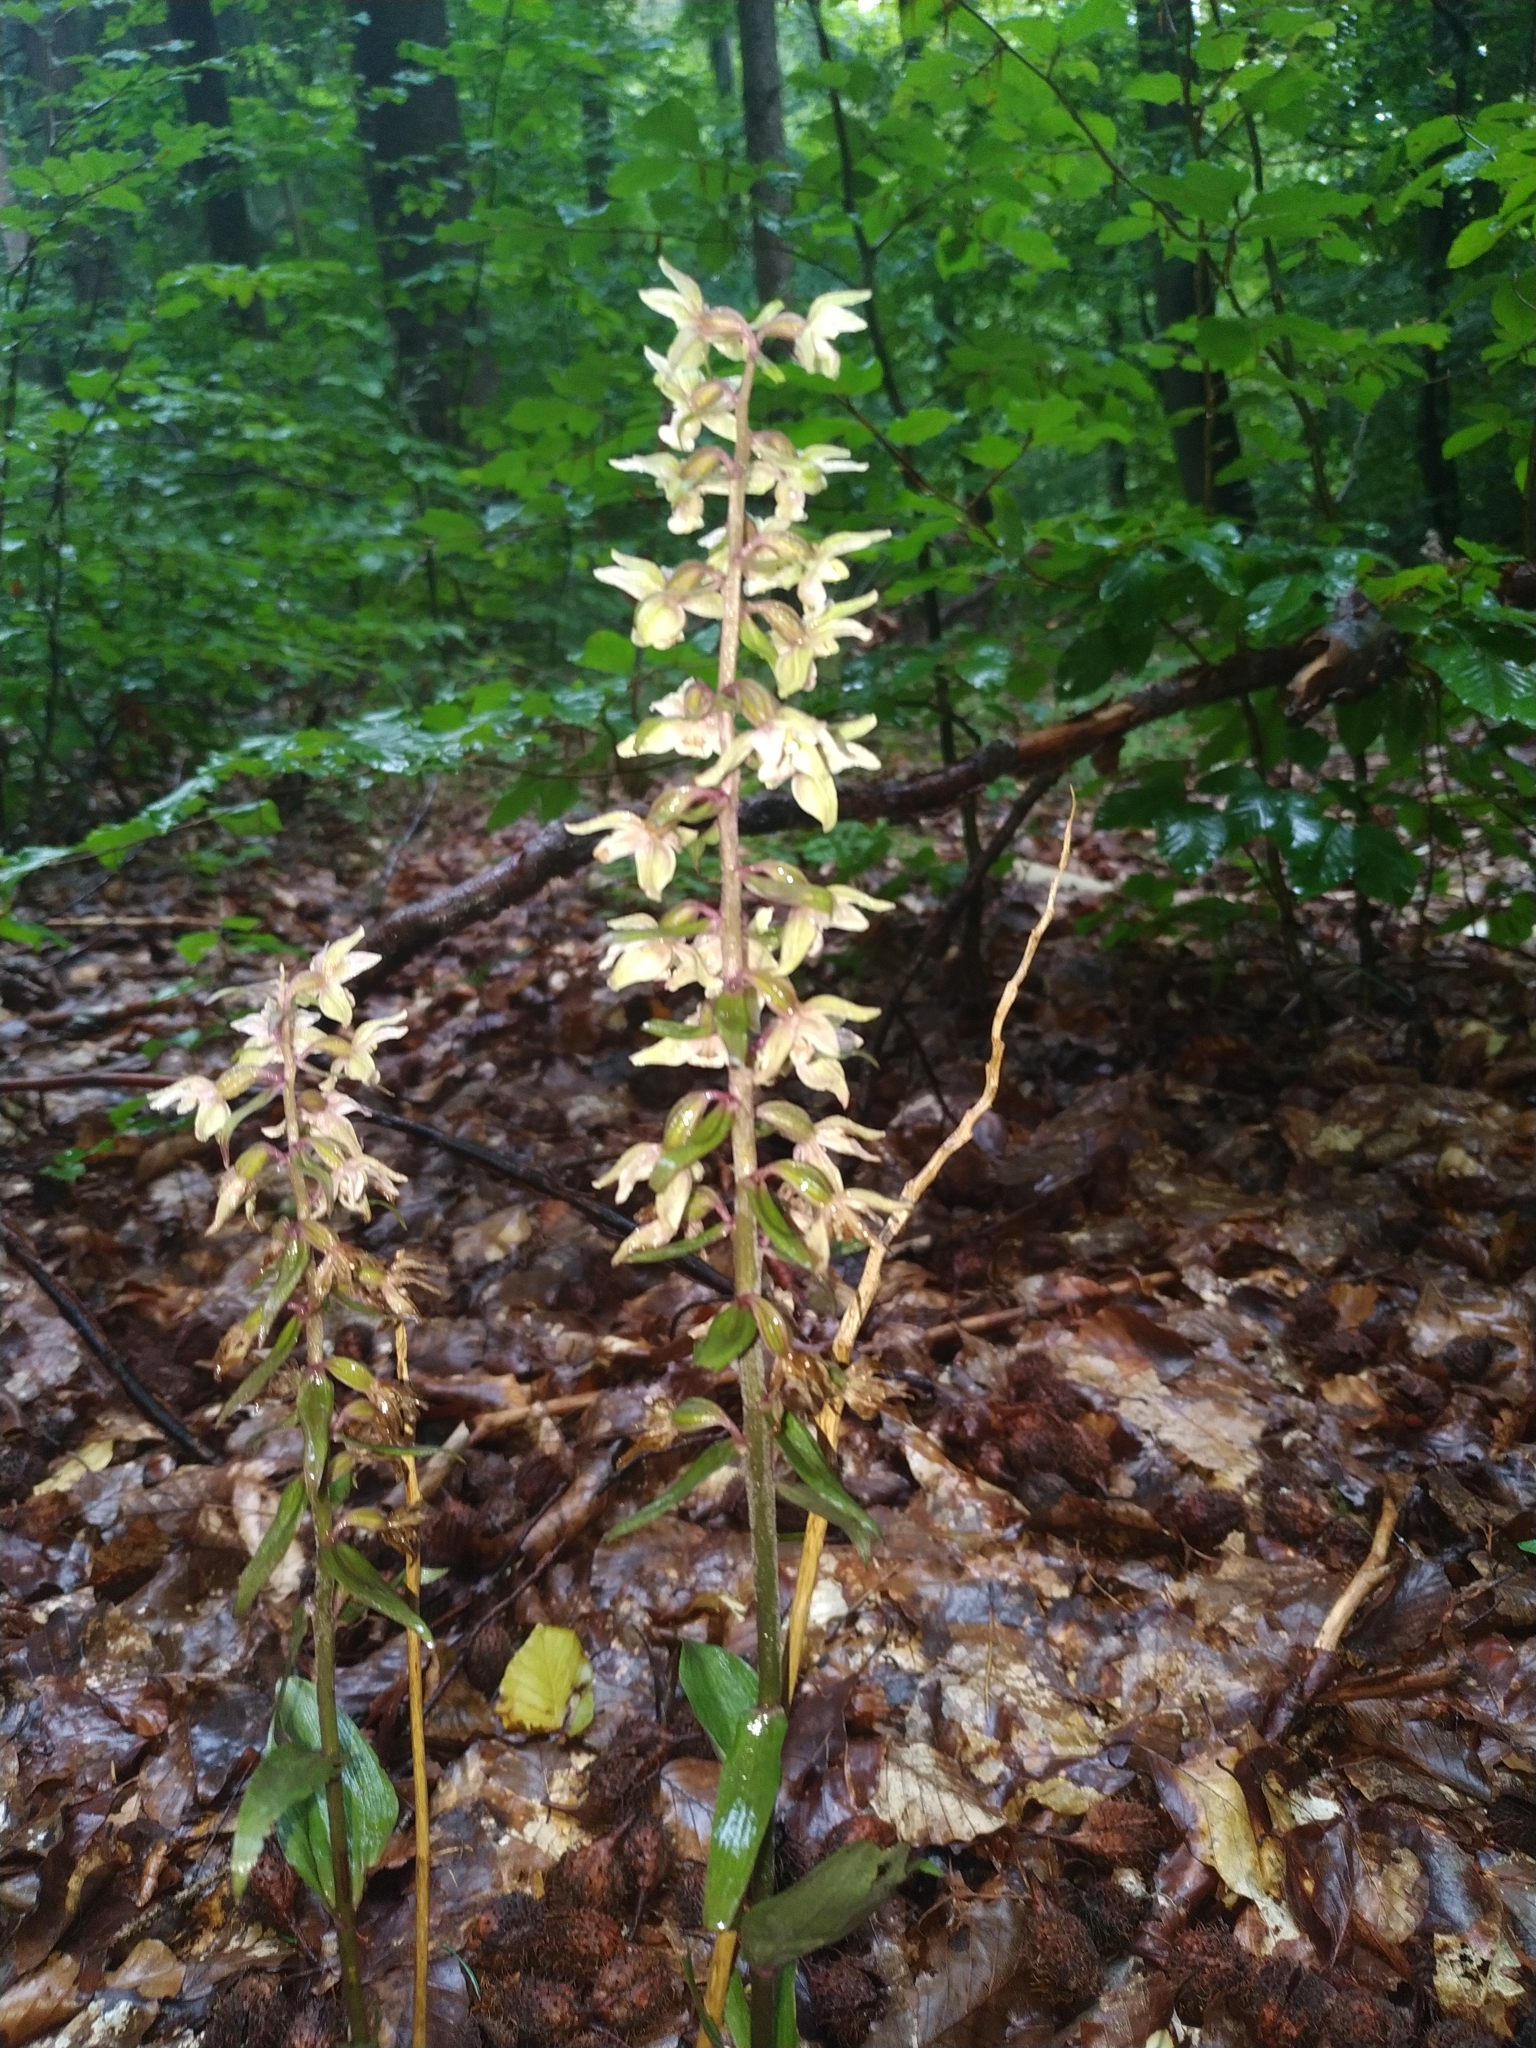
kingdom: Plantae
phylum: Tracheophyta
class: Liliopsida
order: Asparagales
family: Orchidaceae
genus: Epipactis
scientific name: Epipactis purpurata
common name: Violet helleborine
